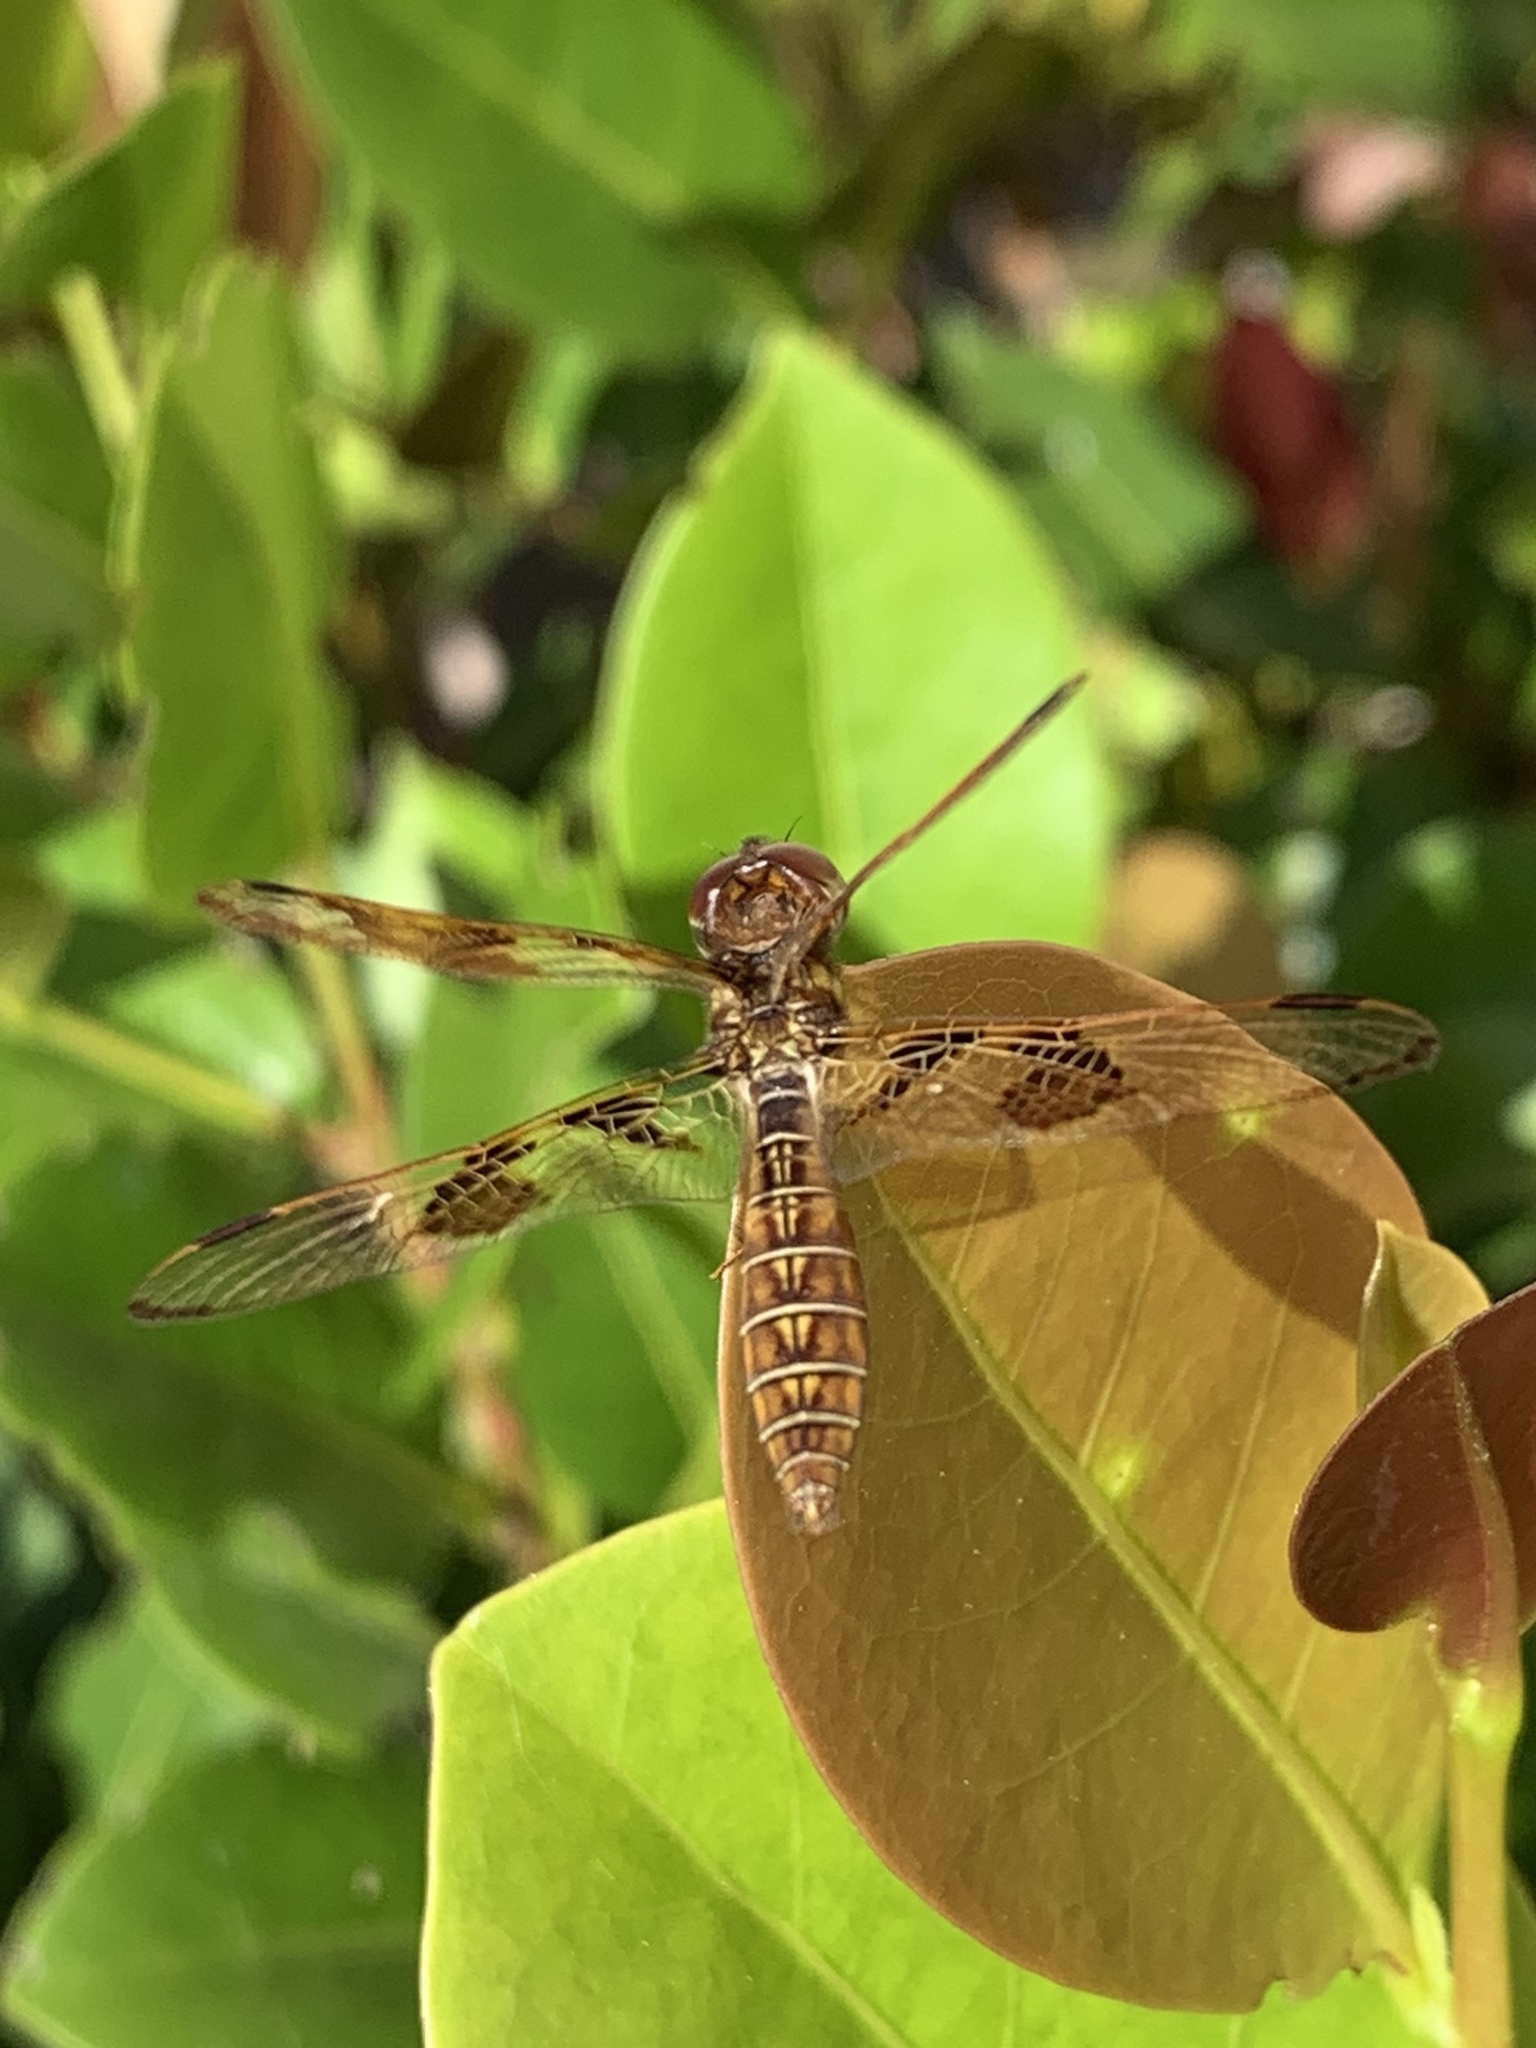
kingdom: Animalia
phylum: Arthropoda
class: Insecta
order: Odonata
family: Libellulidae
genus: Perithemis
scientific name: Perithemis tenera
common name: Eastern amberwing
